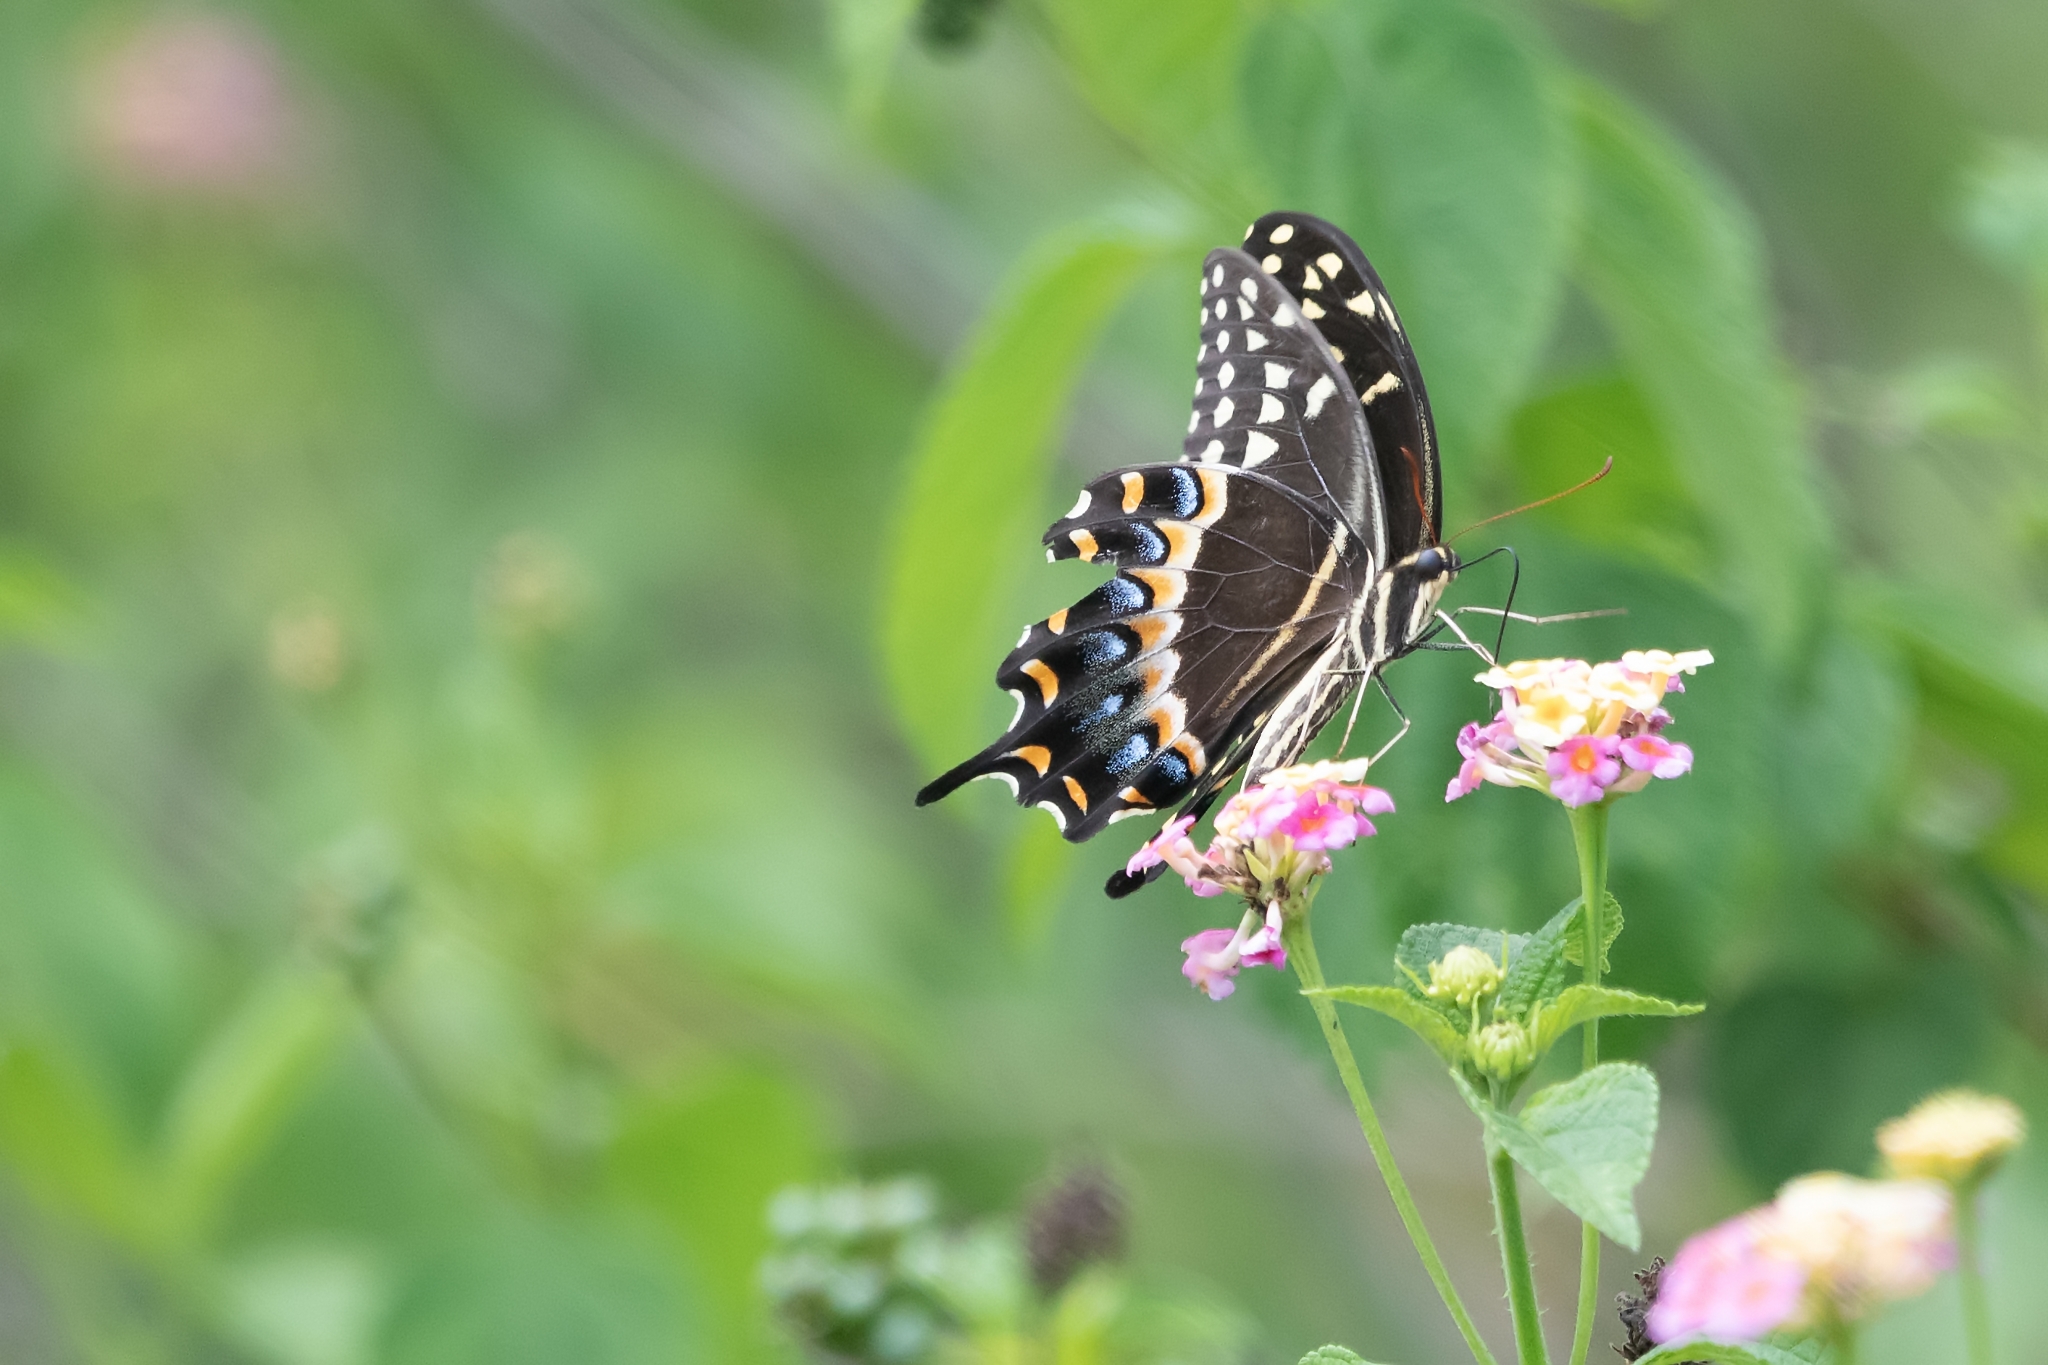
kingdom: Animalia
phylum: Arthropoda
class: Insecta
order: Lepidoptera
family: Papilionidae
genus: Papilio
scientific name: Papilio palamedes
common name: Palamedes swallowtail
